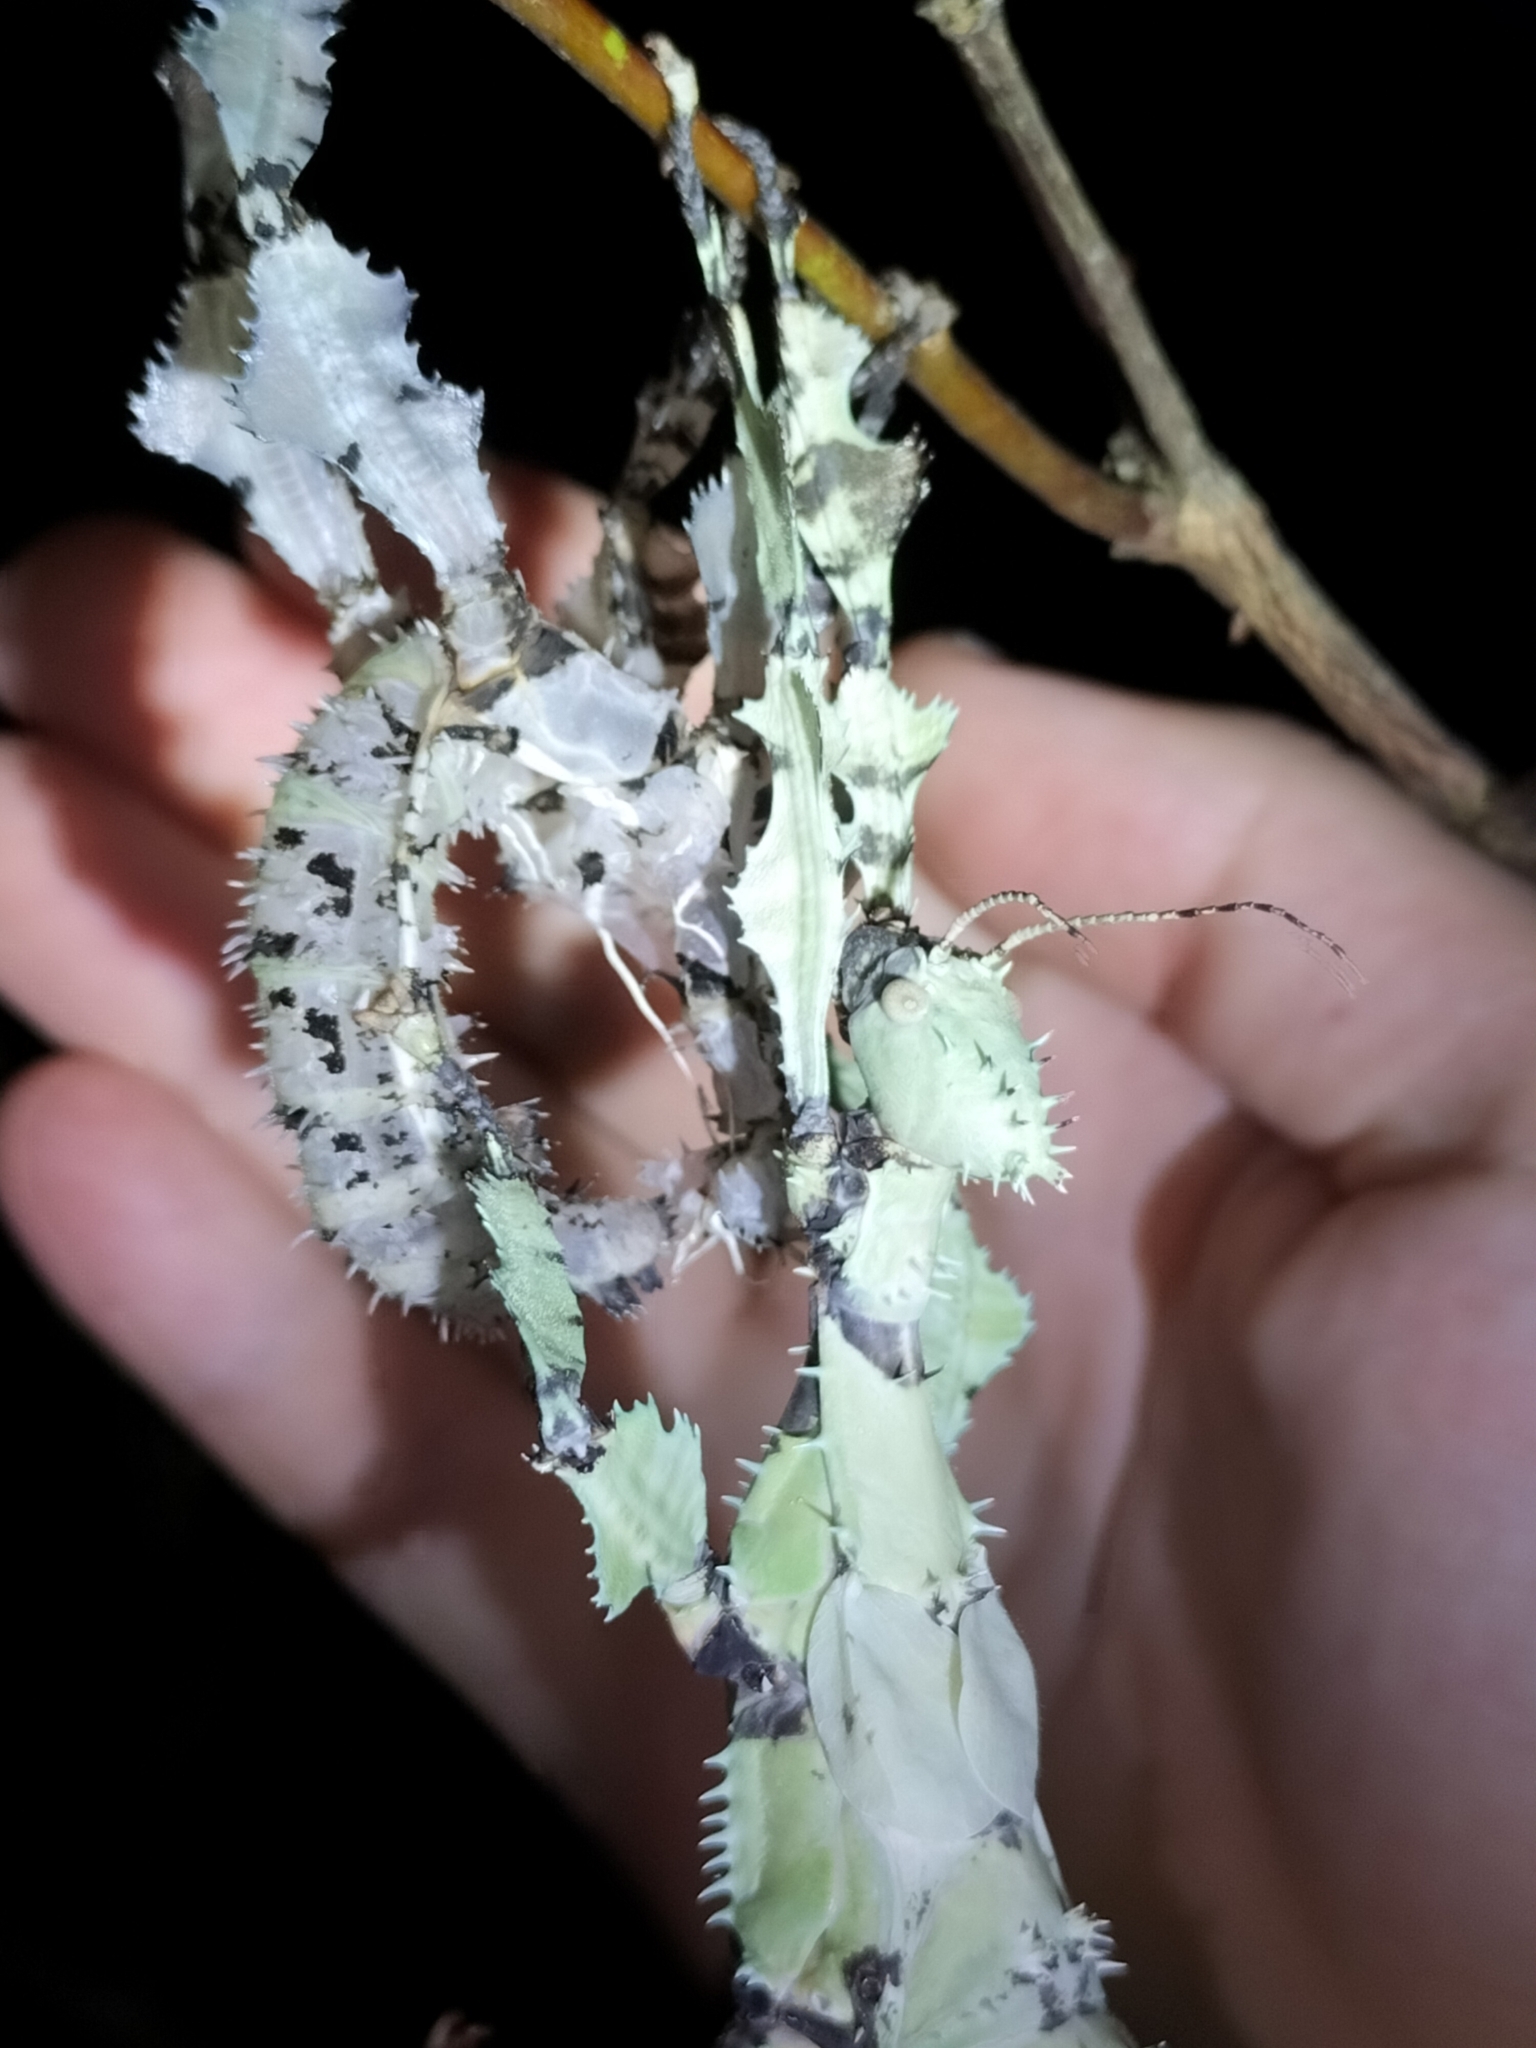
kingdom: Animalia
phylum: Arthropoda
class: Insecta
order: Phasmida
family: Phasmatidae
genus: Extatosoma
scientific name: Extatosoma tiaratum
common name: Macleay's spectre
